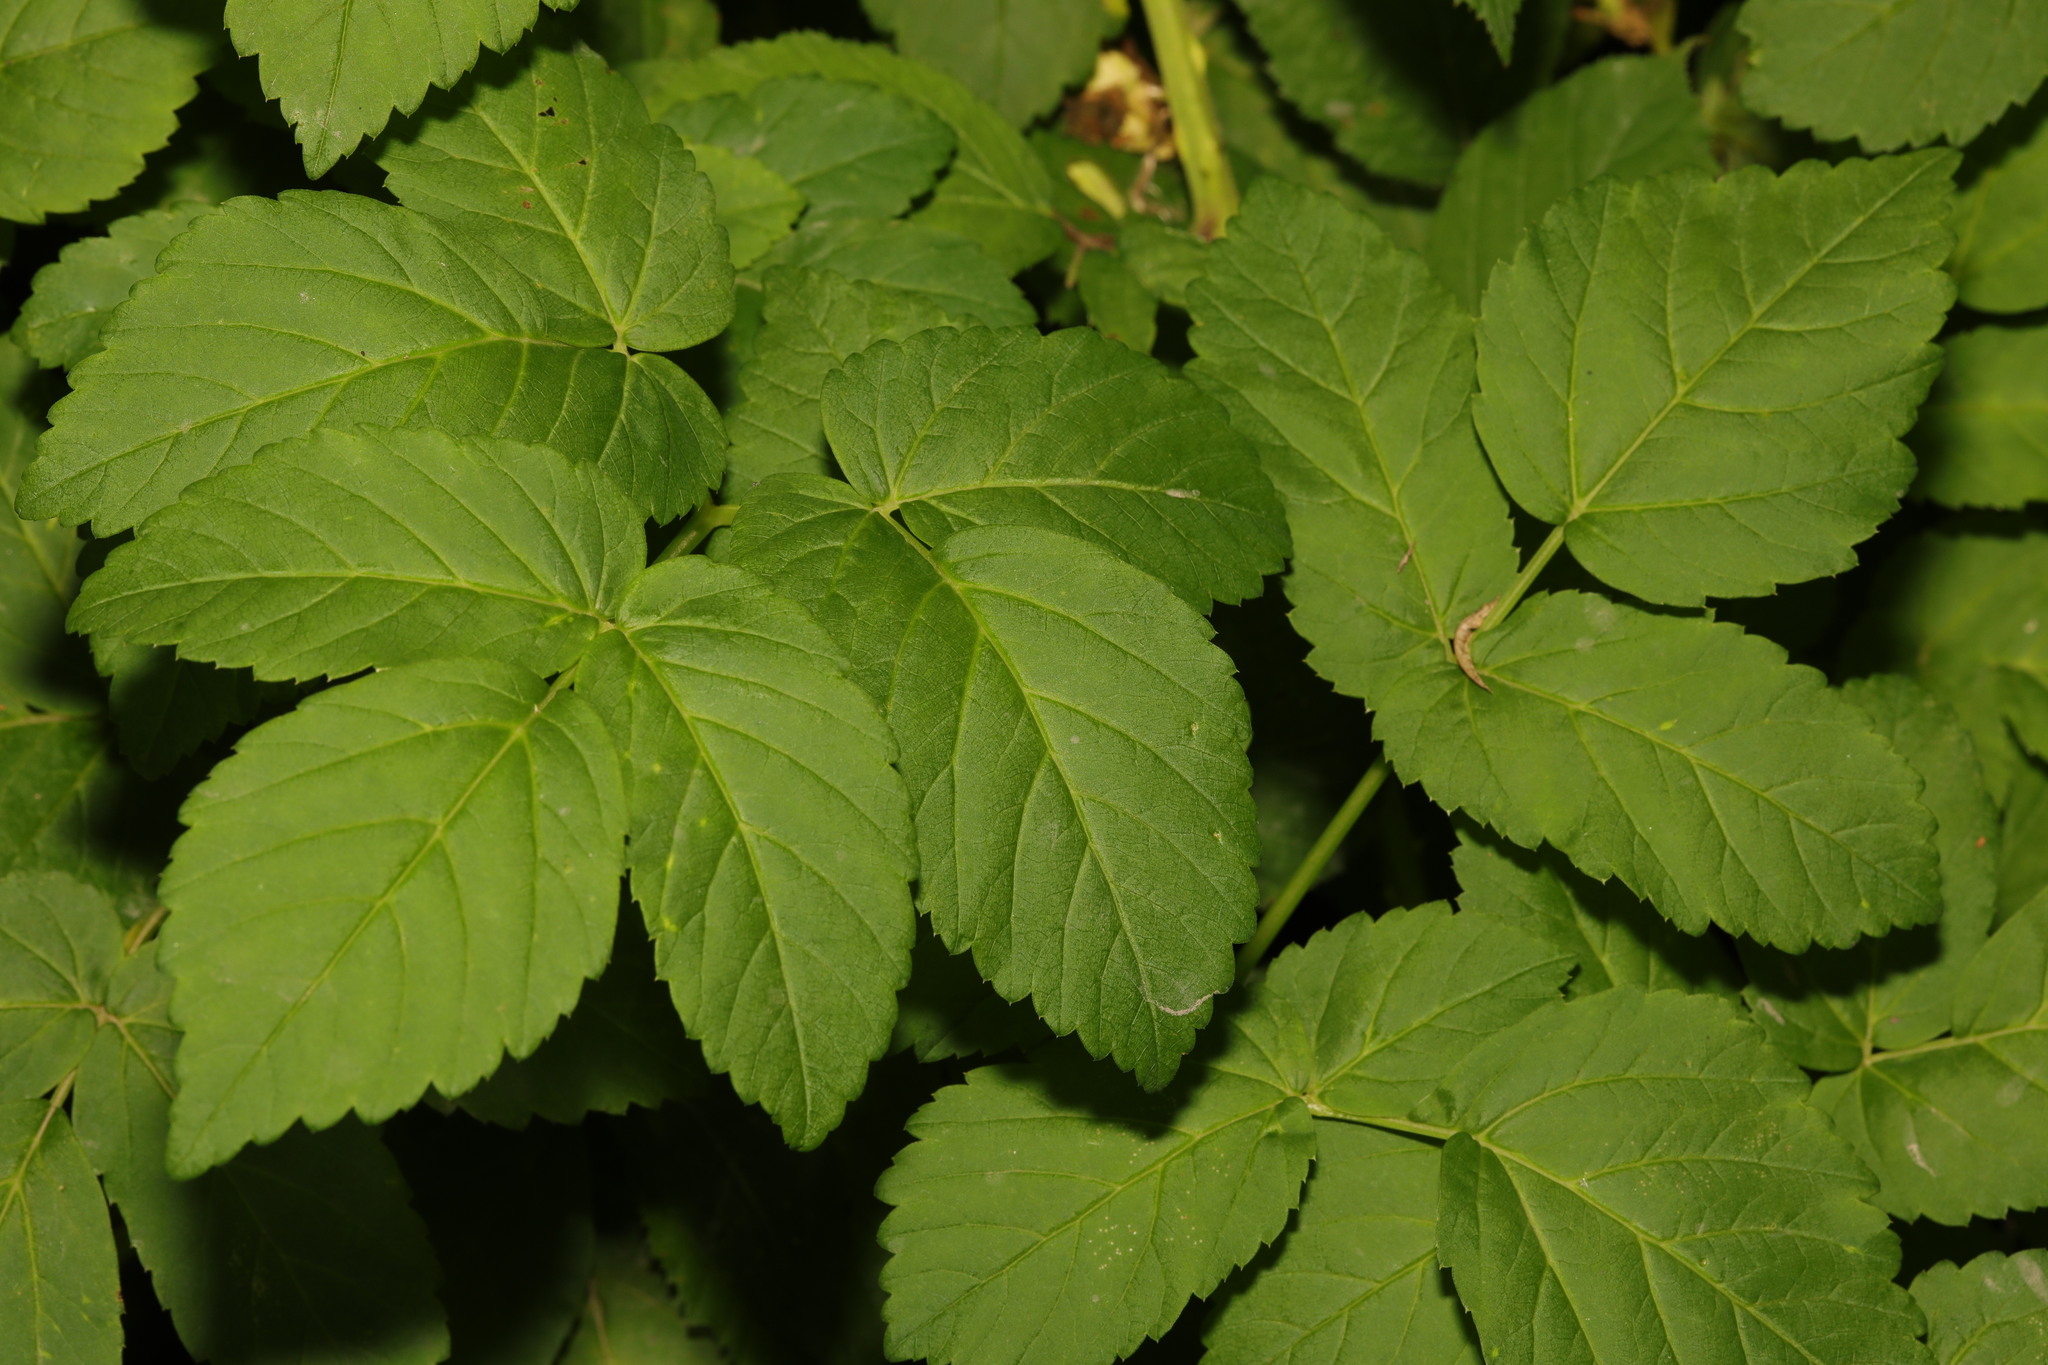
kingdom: Plantae
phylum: Tracheophyta
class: Magnoliopsida
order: Apiales
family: Apiaceae
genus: Aegopodium
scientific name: Aegopodium podagraria
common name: Ground-elder
